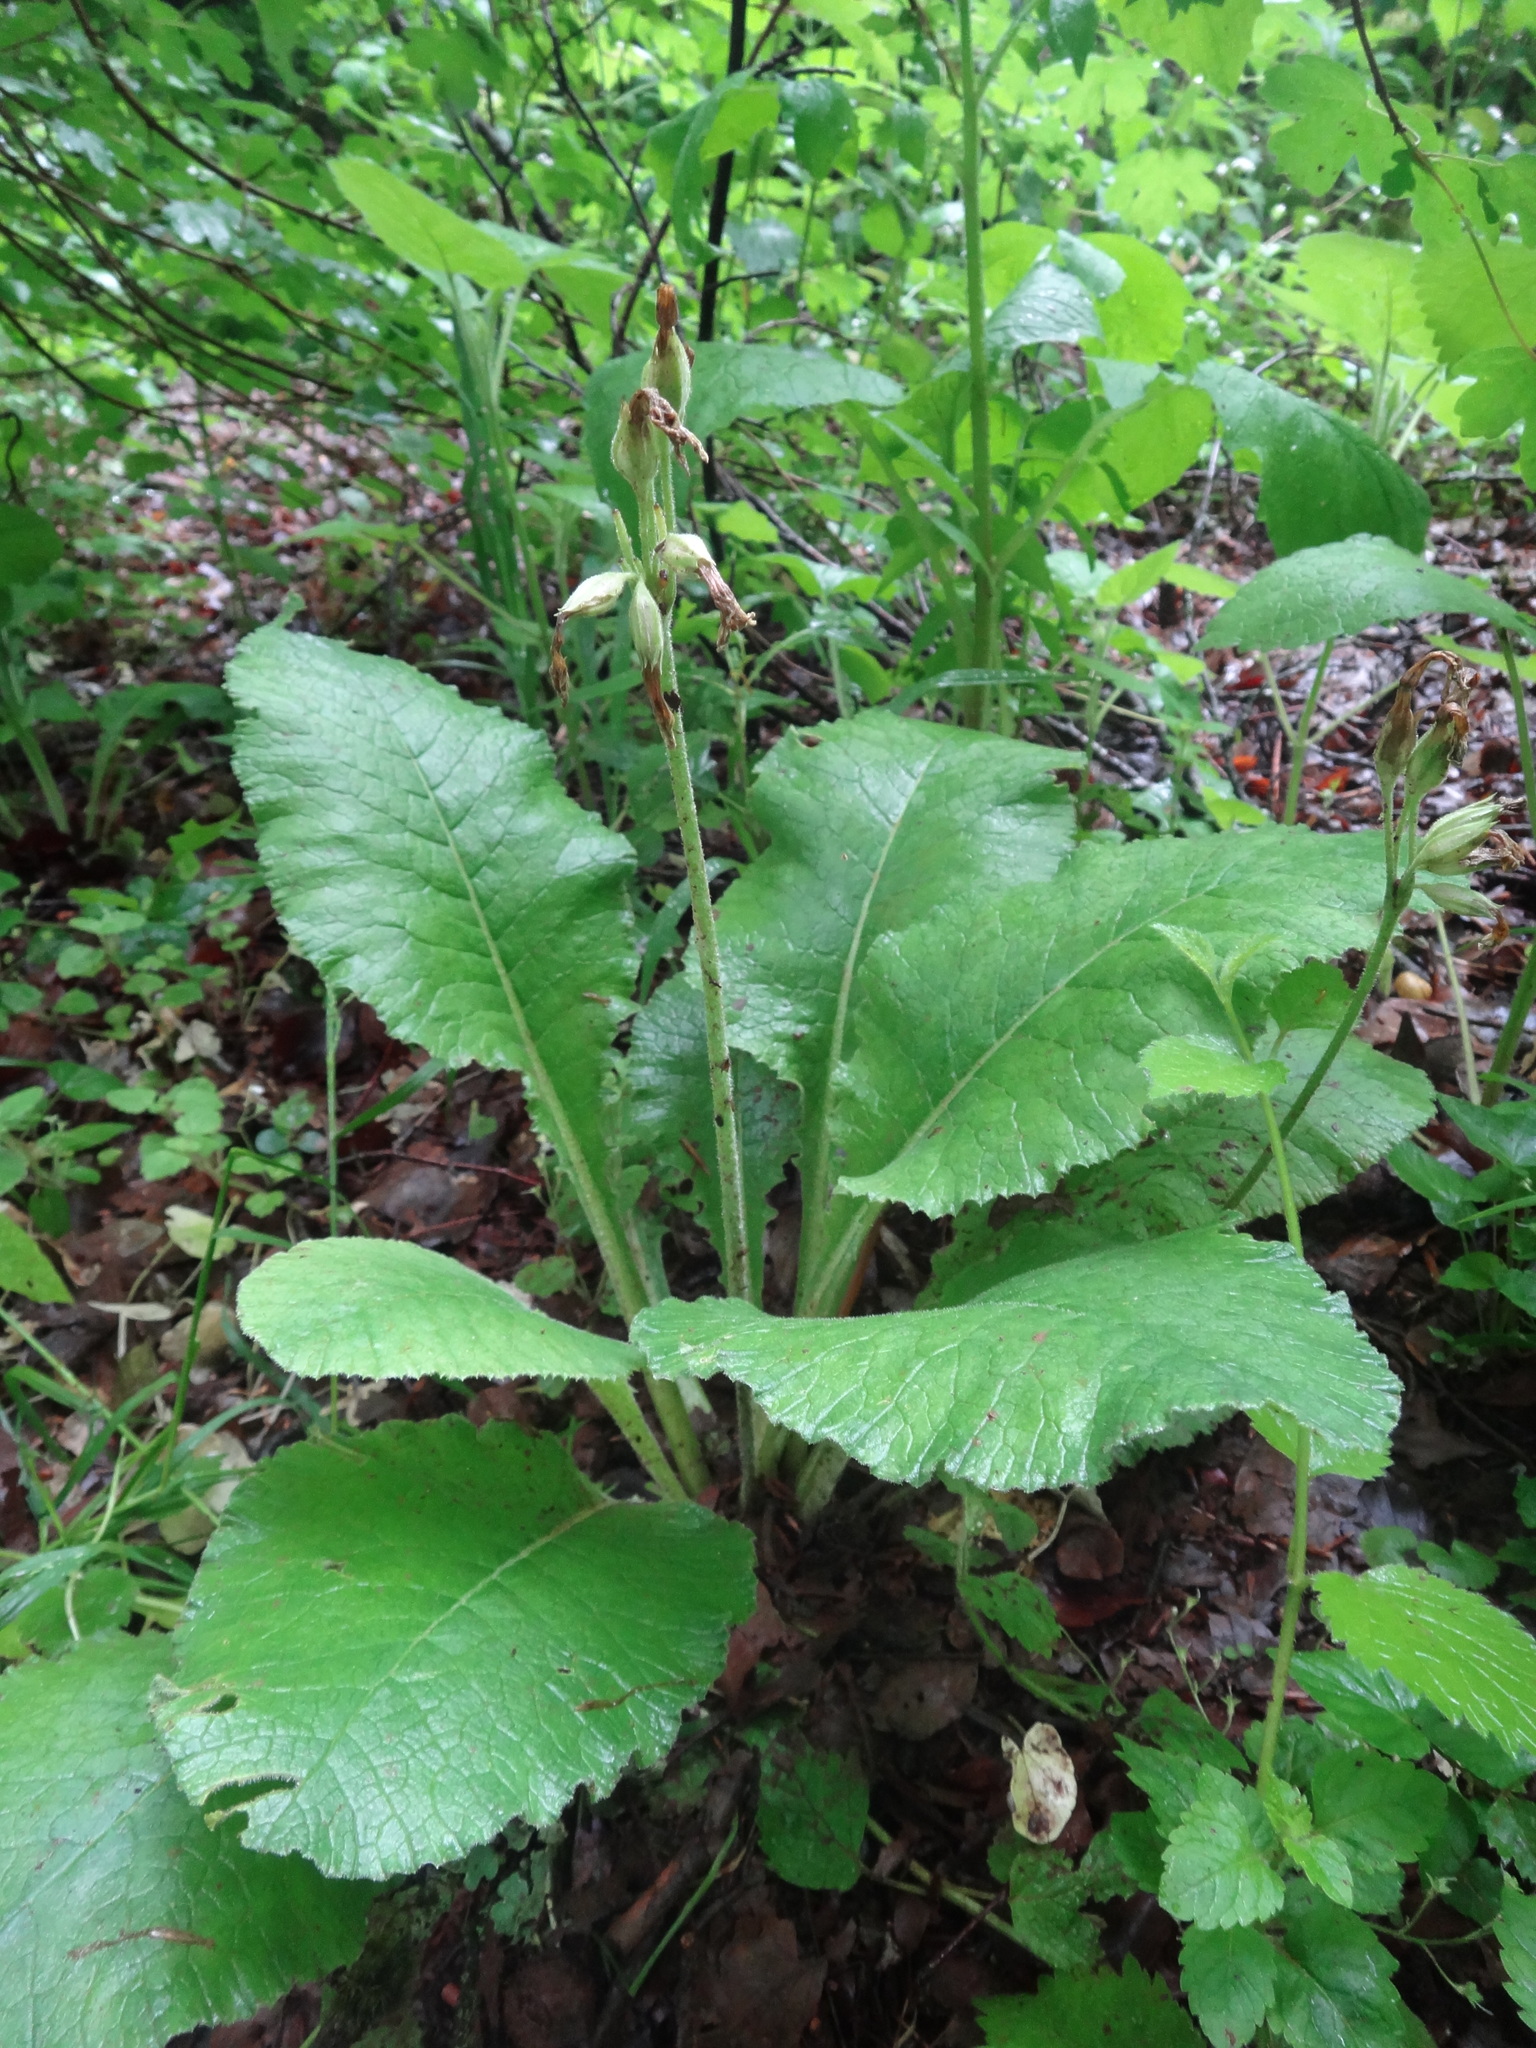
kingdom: Plantae
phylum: Tracheophyta
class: Magnoliopsida
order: Ericales
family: Primulaceae
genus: Primula
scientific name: Primula veris
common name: Cowslip
